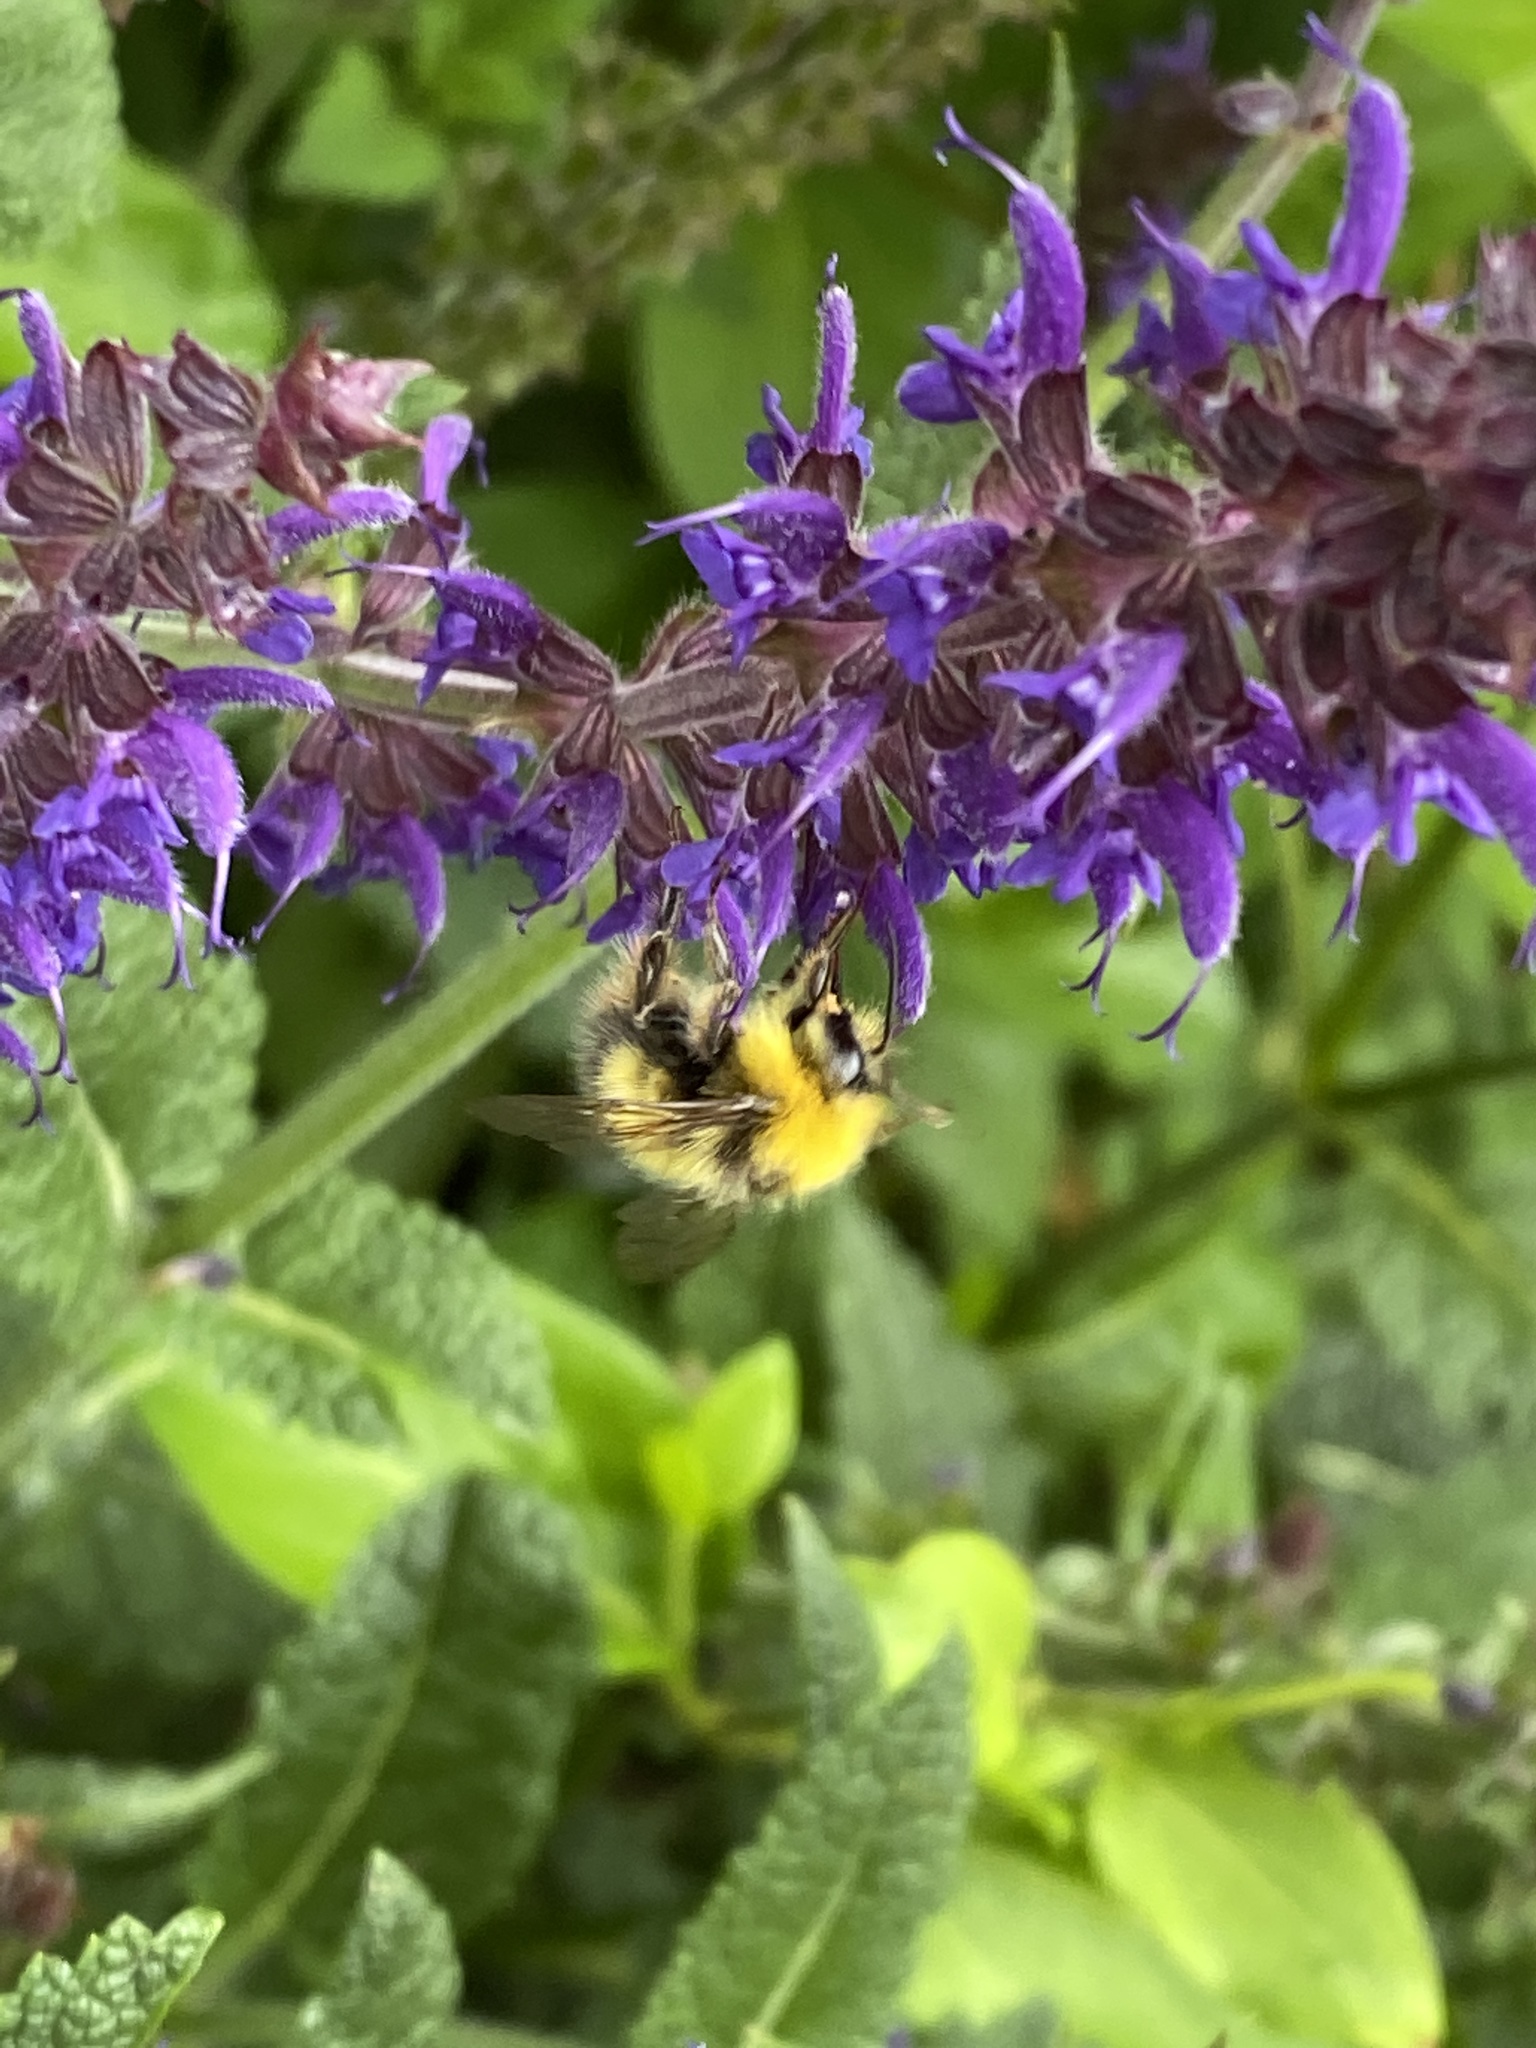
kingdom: Animalia
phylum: Arthropoda
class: Insecta
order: Hymenoptera
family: Apidae
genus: Bombus
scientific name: Bombus pratorum
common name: Early humble-bee
